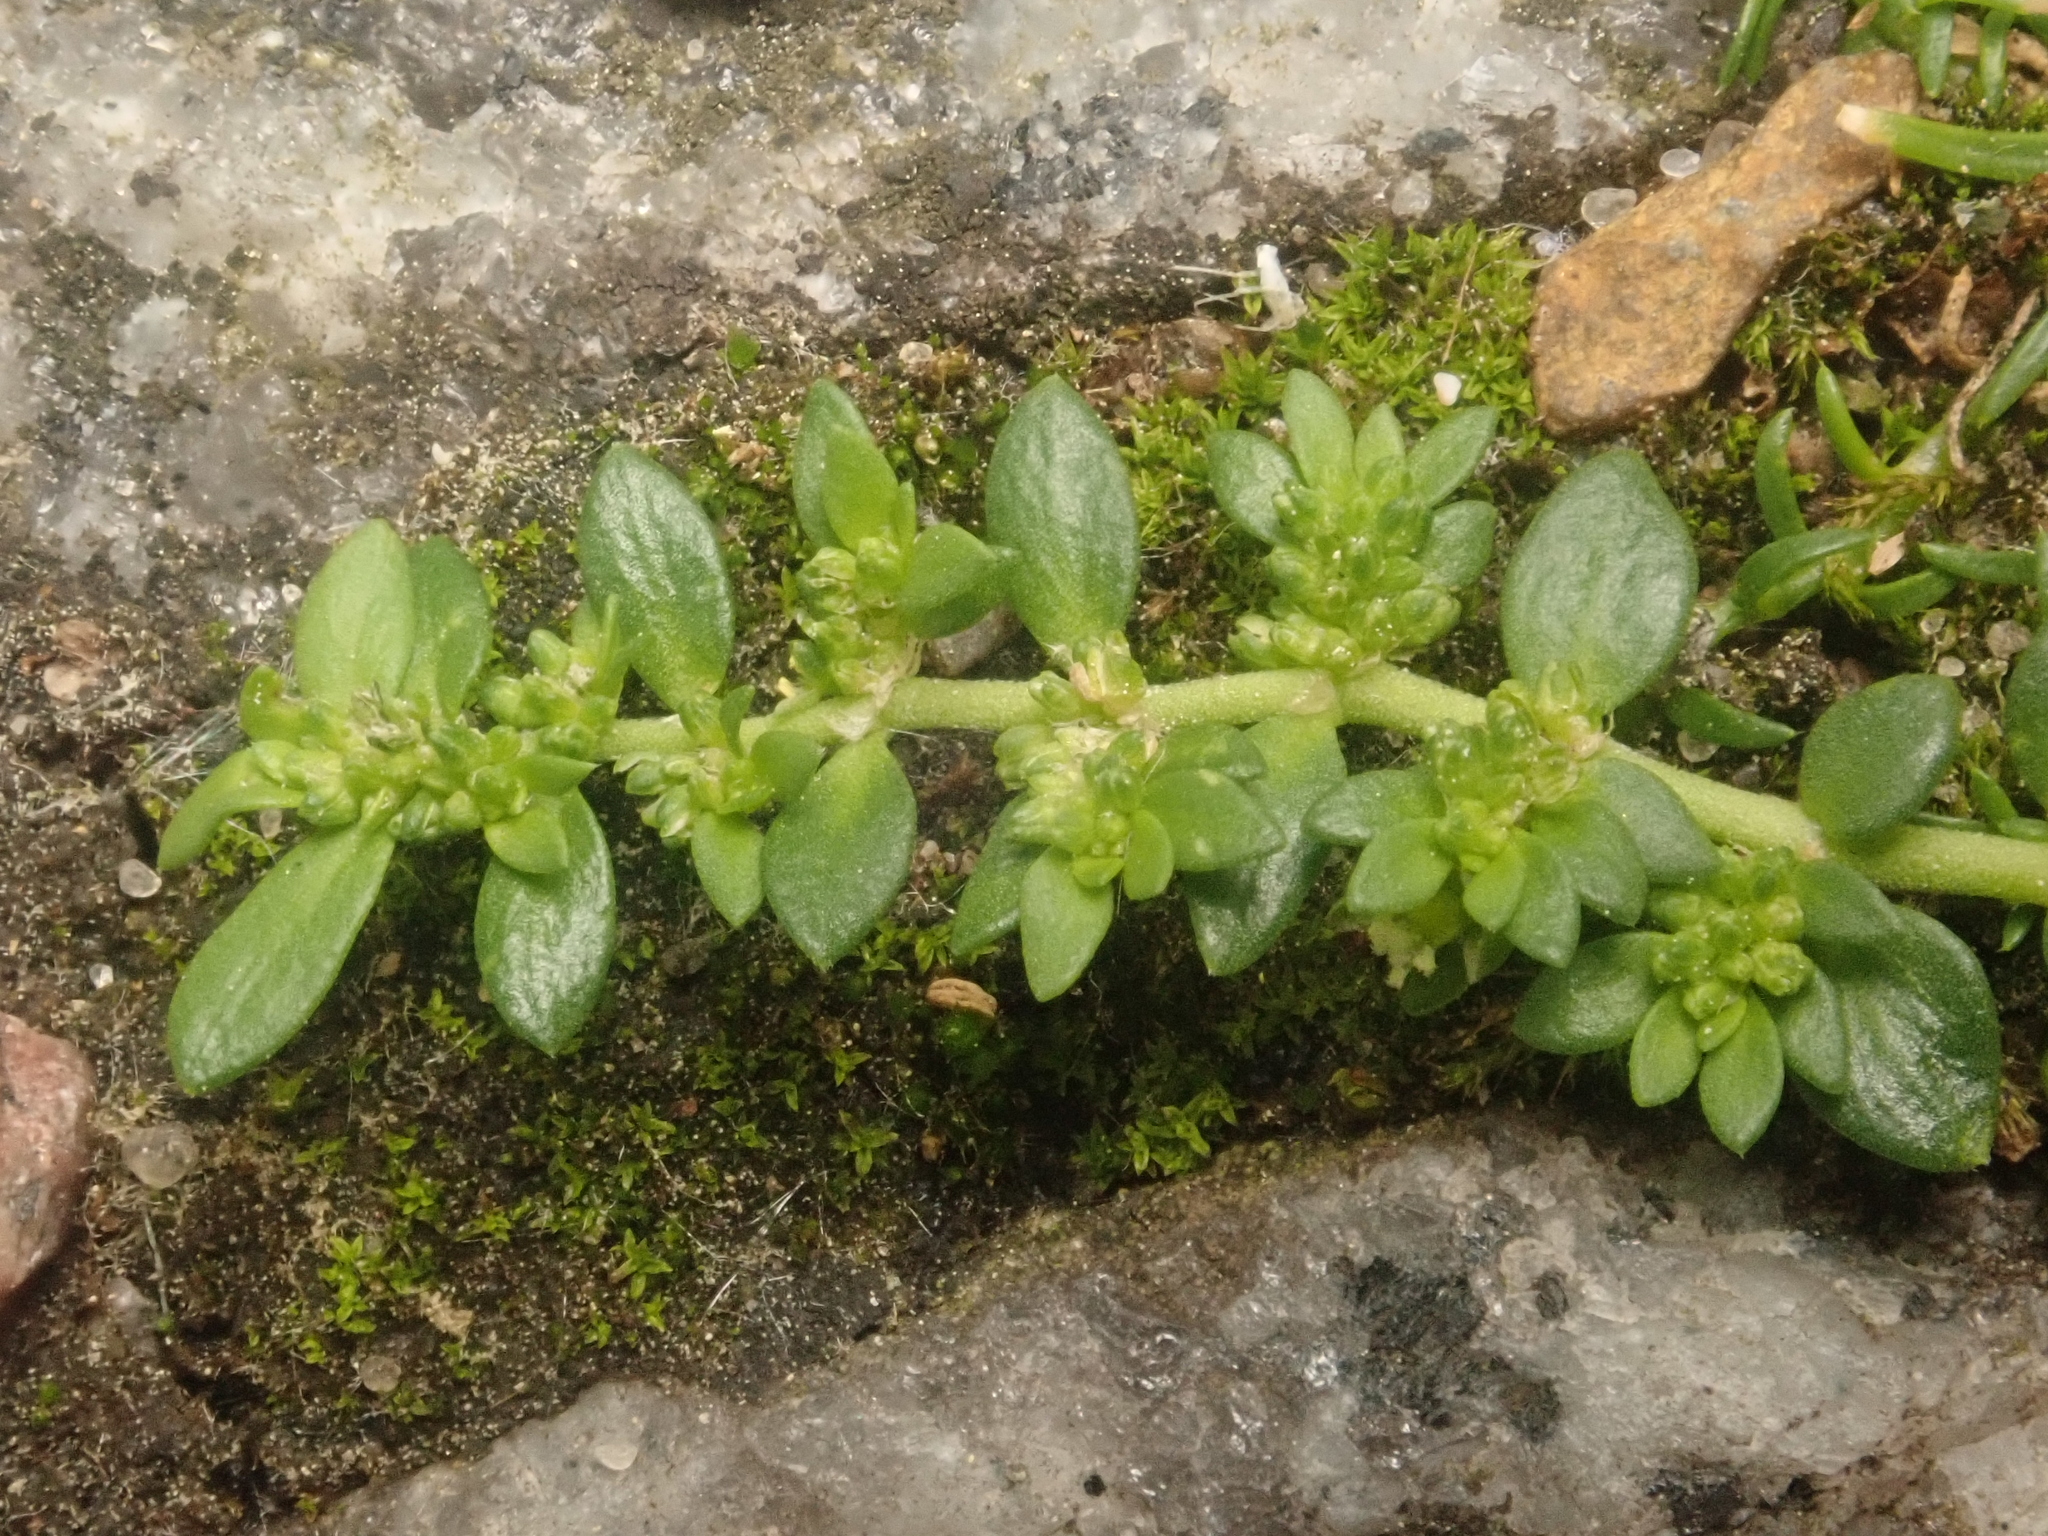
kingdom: Plantae
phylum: Tracheophyta
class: Magnoliopsida
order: Caryophyllales
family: Caryophyllaceae
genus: Herniaria
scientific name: Herniaria glabra
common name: Smooth rupturewort
